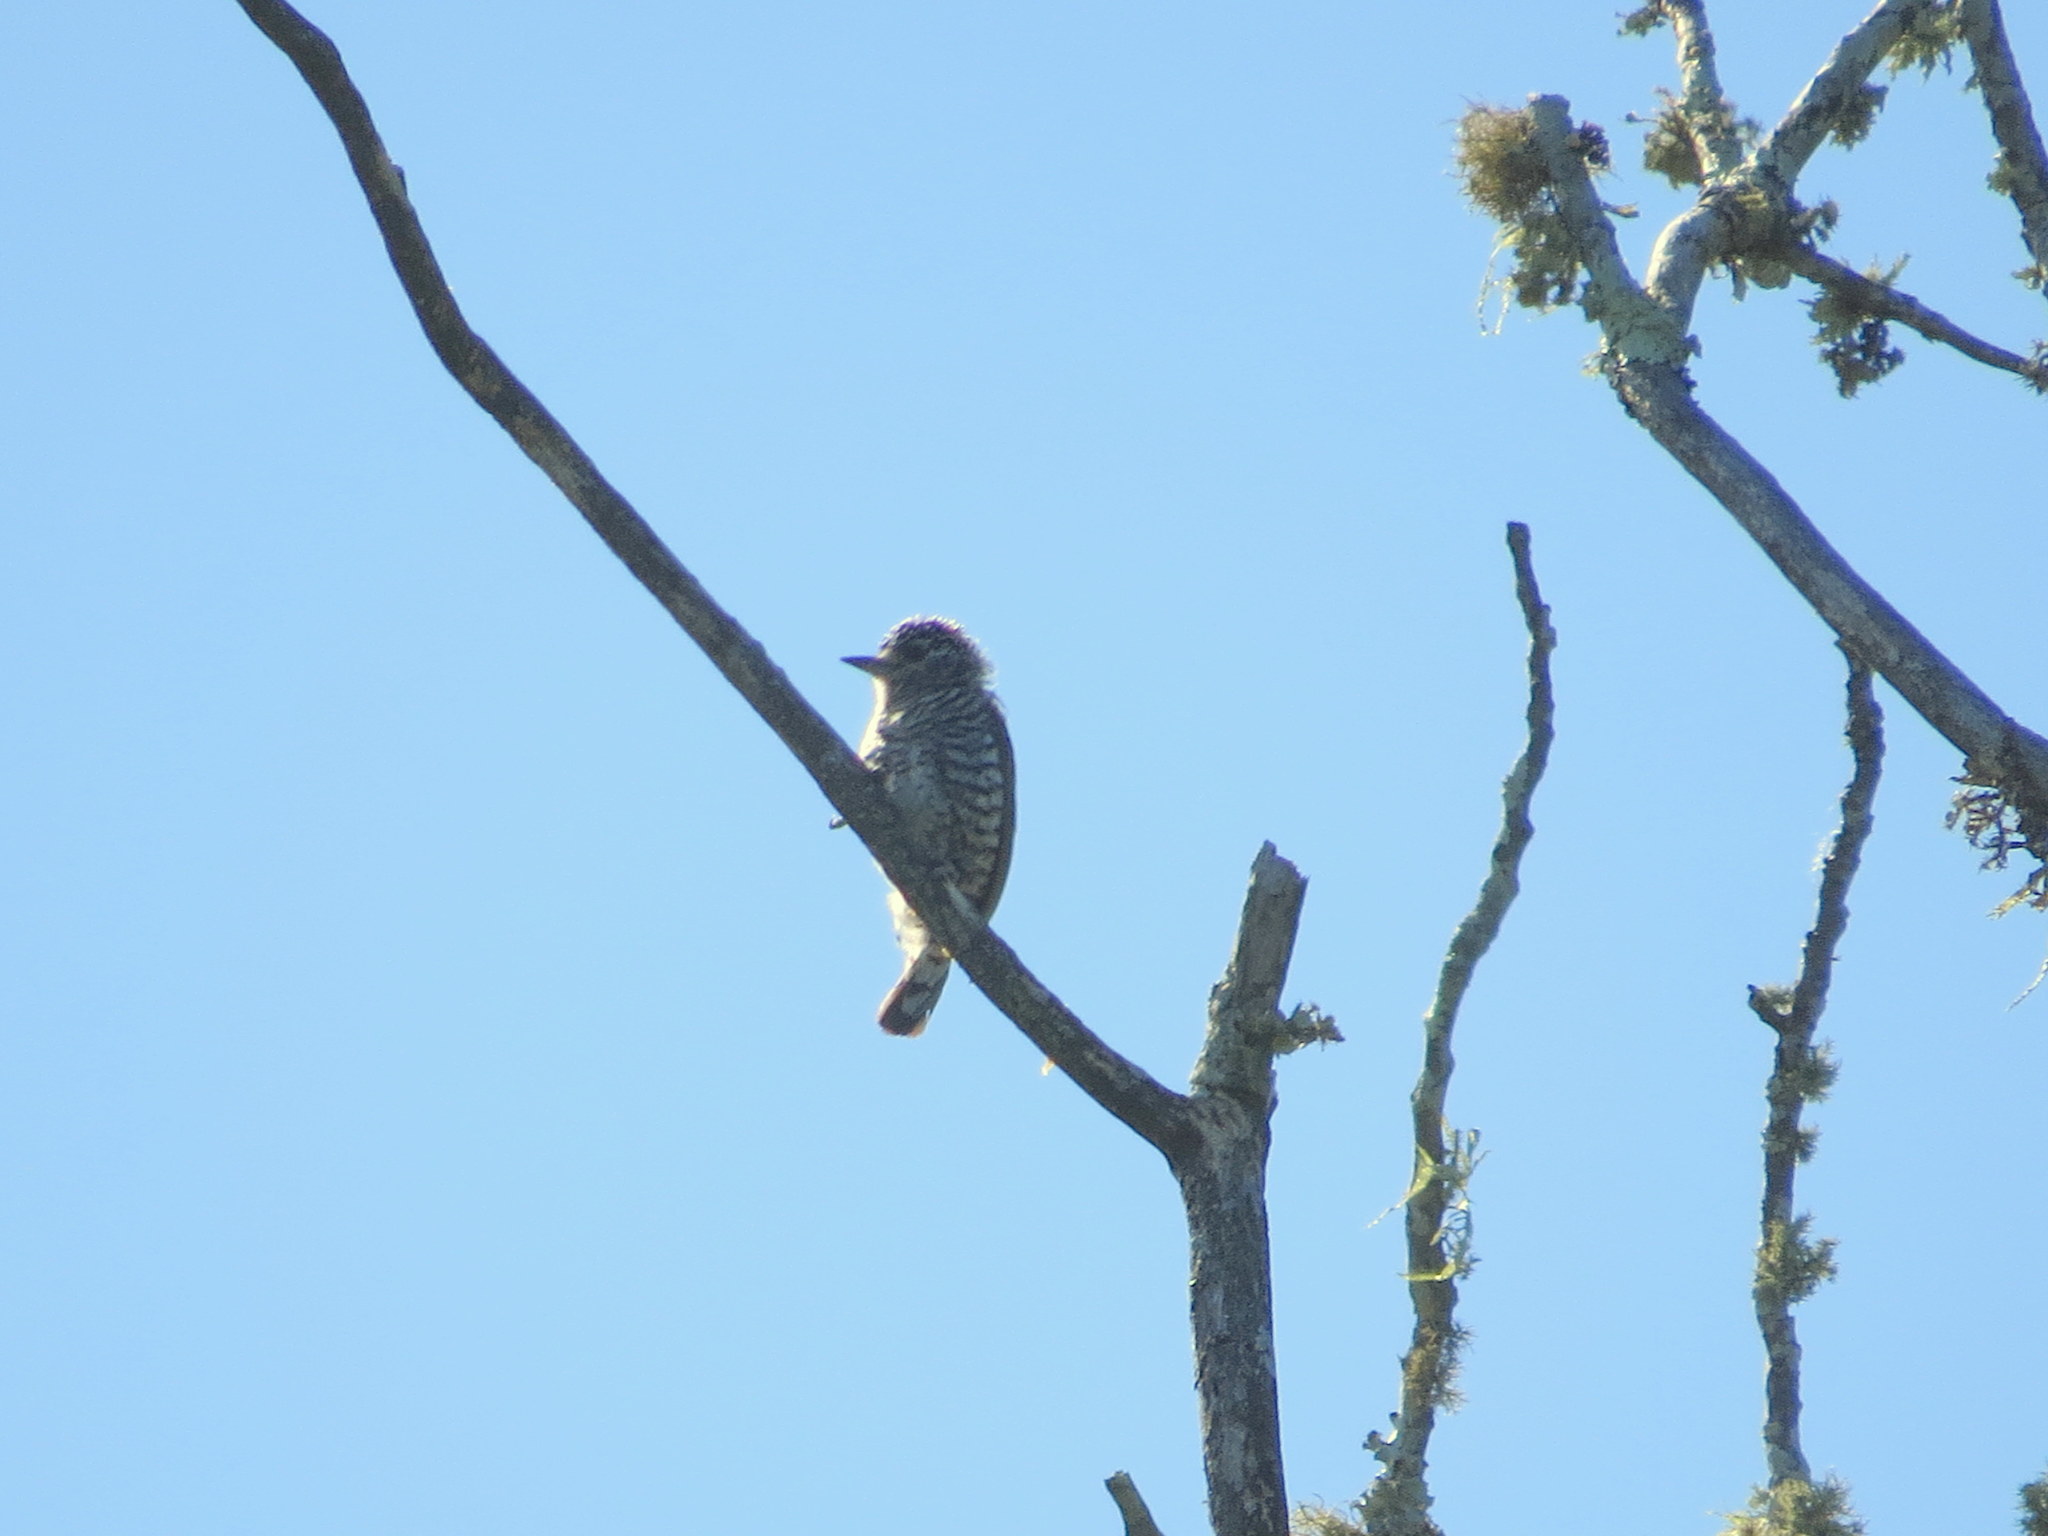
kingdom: Animalia
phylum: Chordata
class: Aves
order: Piciformes
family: Picidae
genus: Picumnus
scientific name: Picumnus cirratus
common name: White-barred piculet
